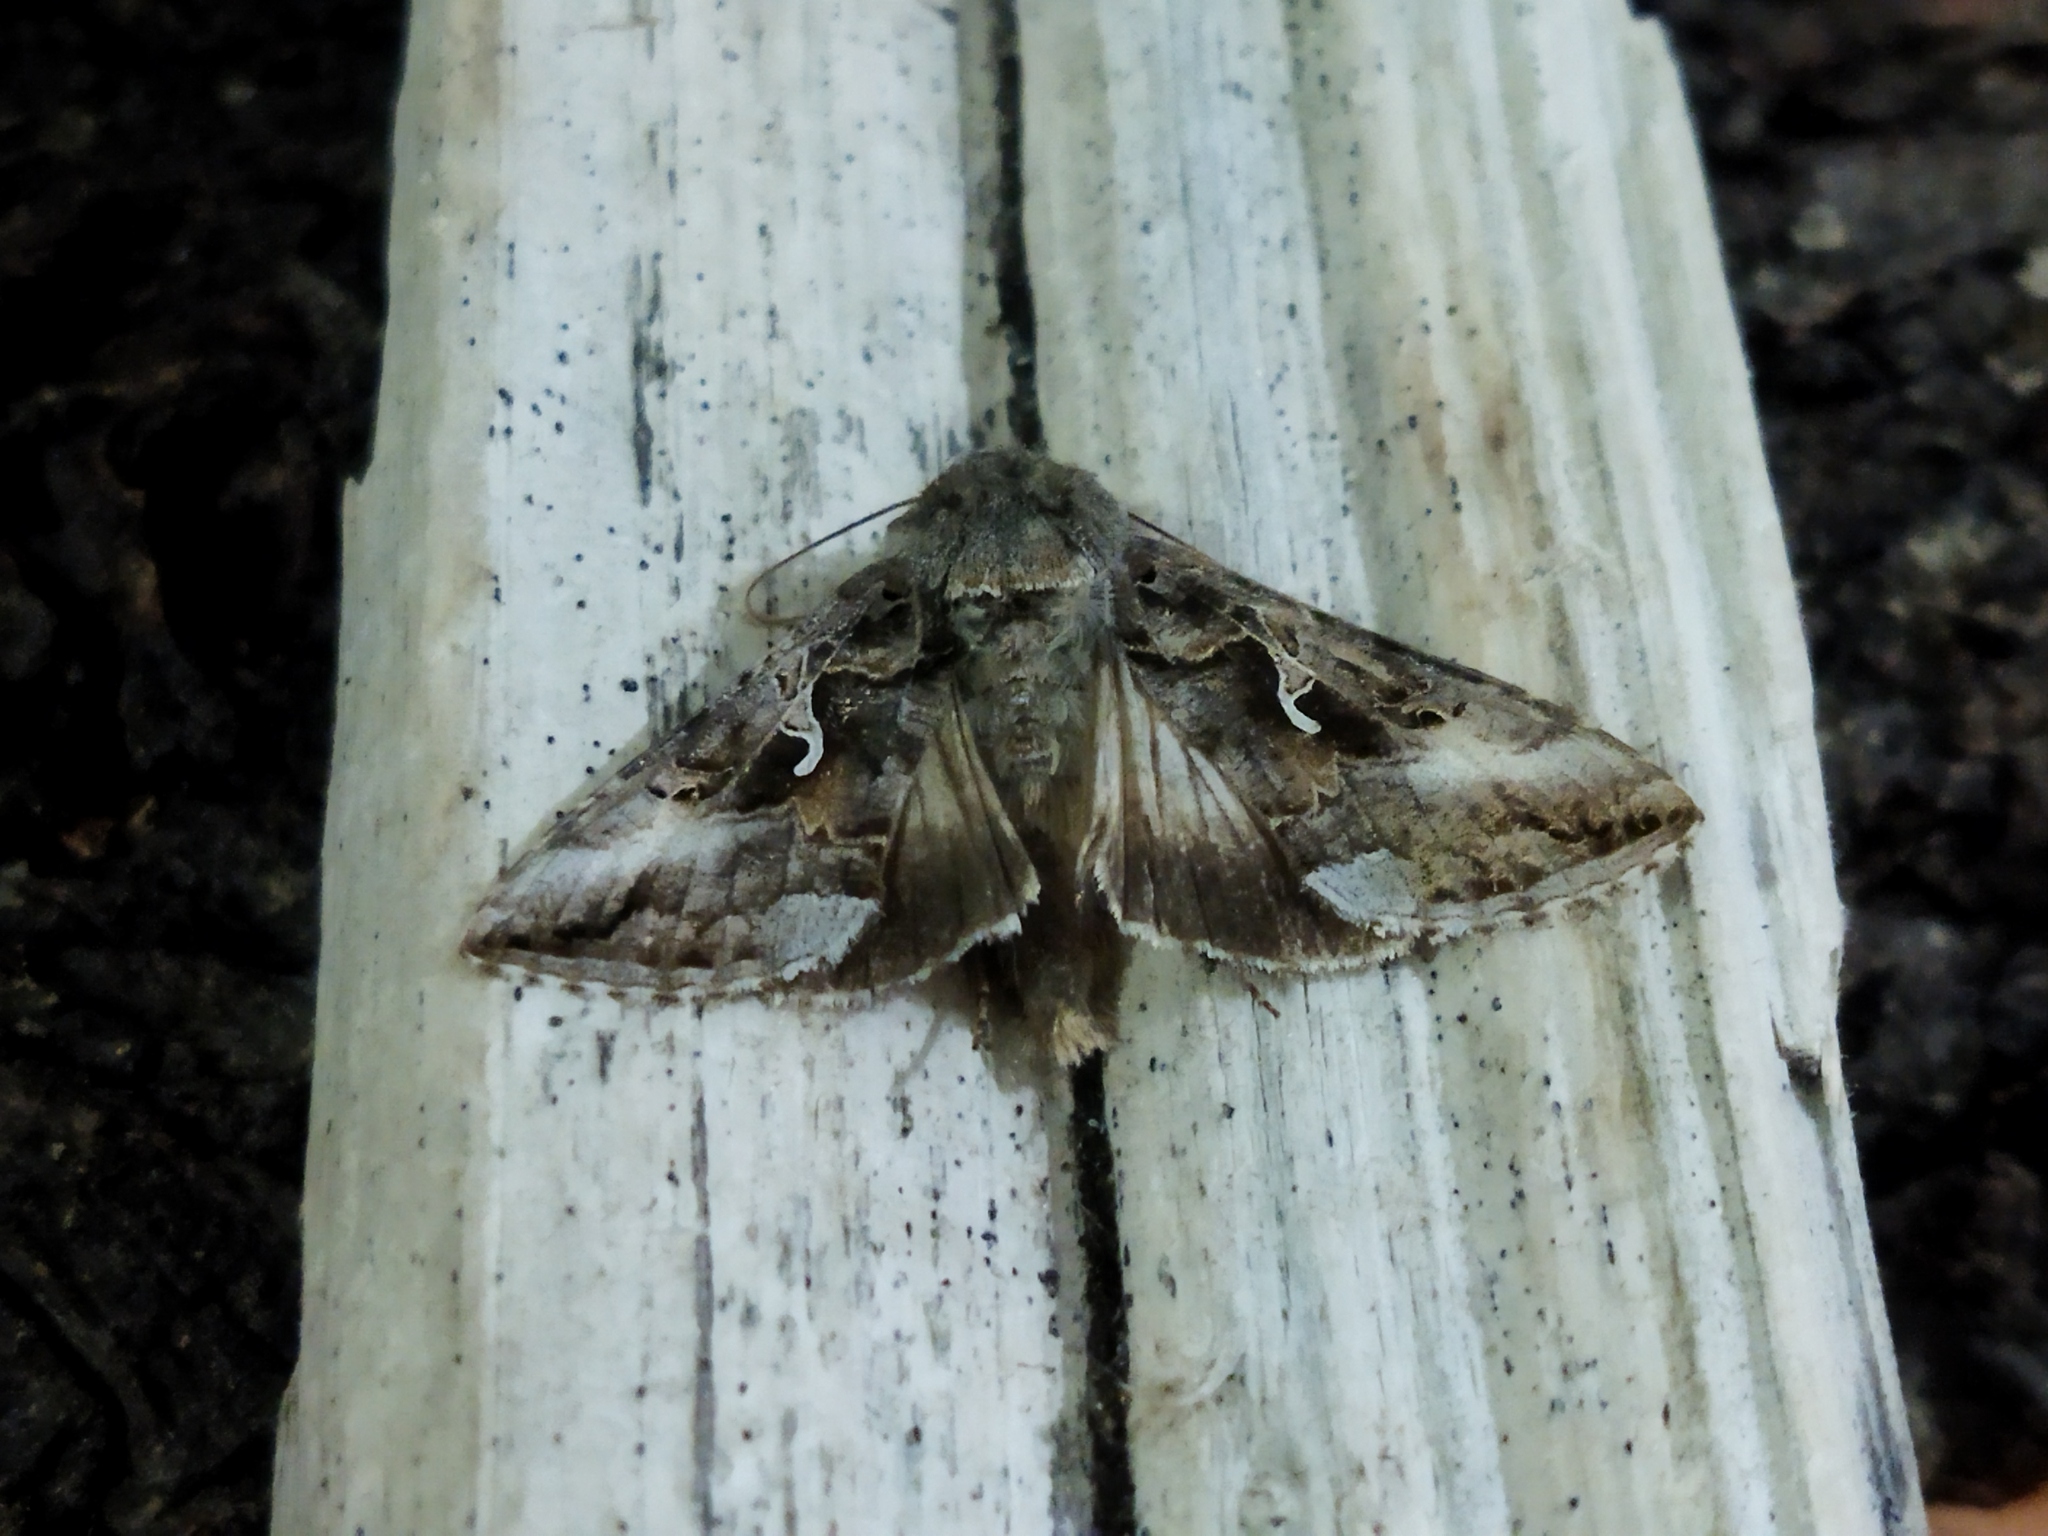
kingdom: Animalia
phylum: Arthropoda
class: Insecta
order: Lepidoptera
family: Noctuidae
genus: Autographa
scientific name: Autographa gamma
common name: Silver y
